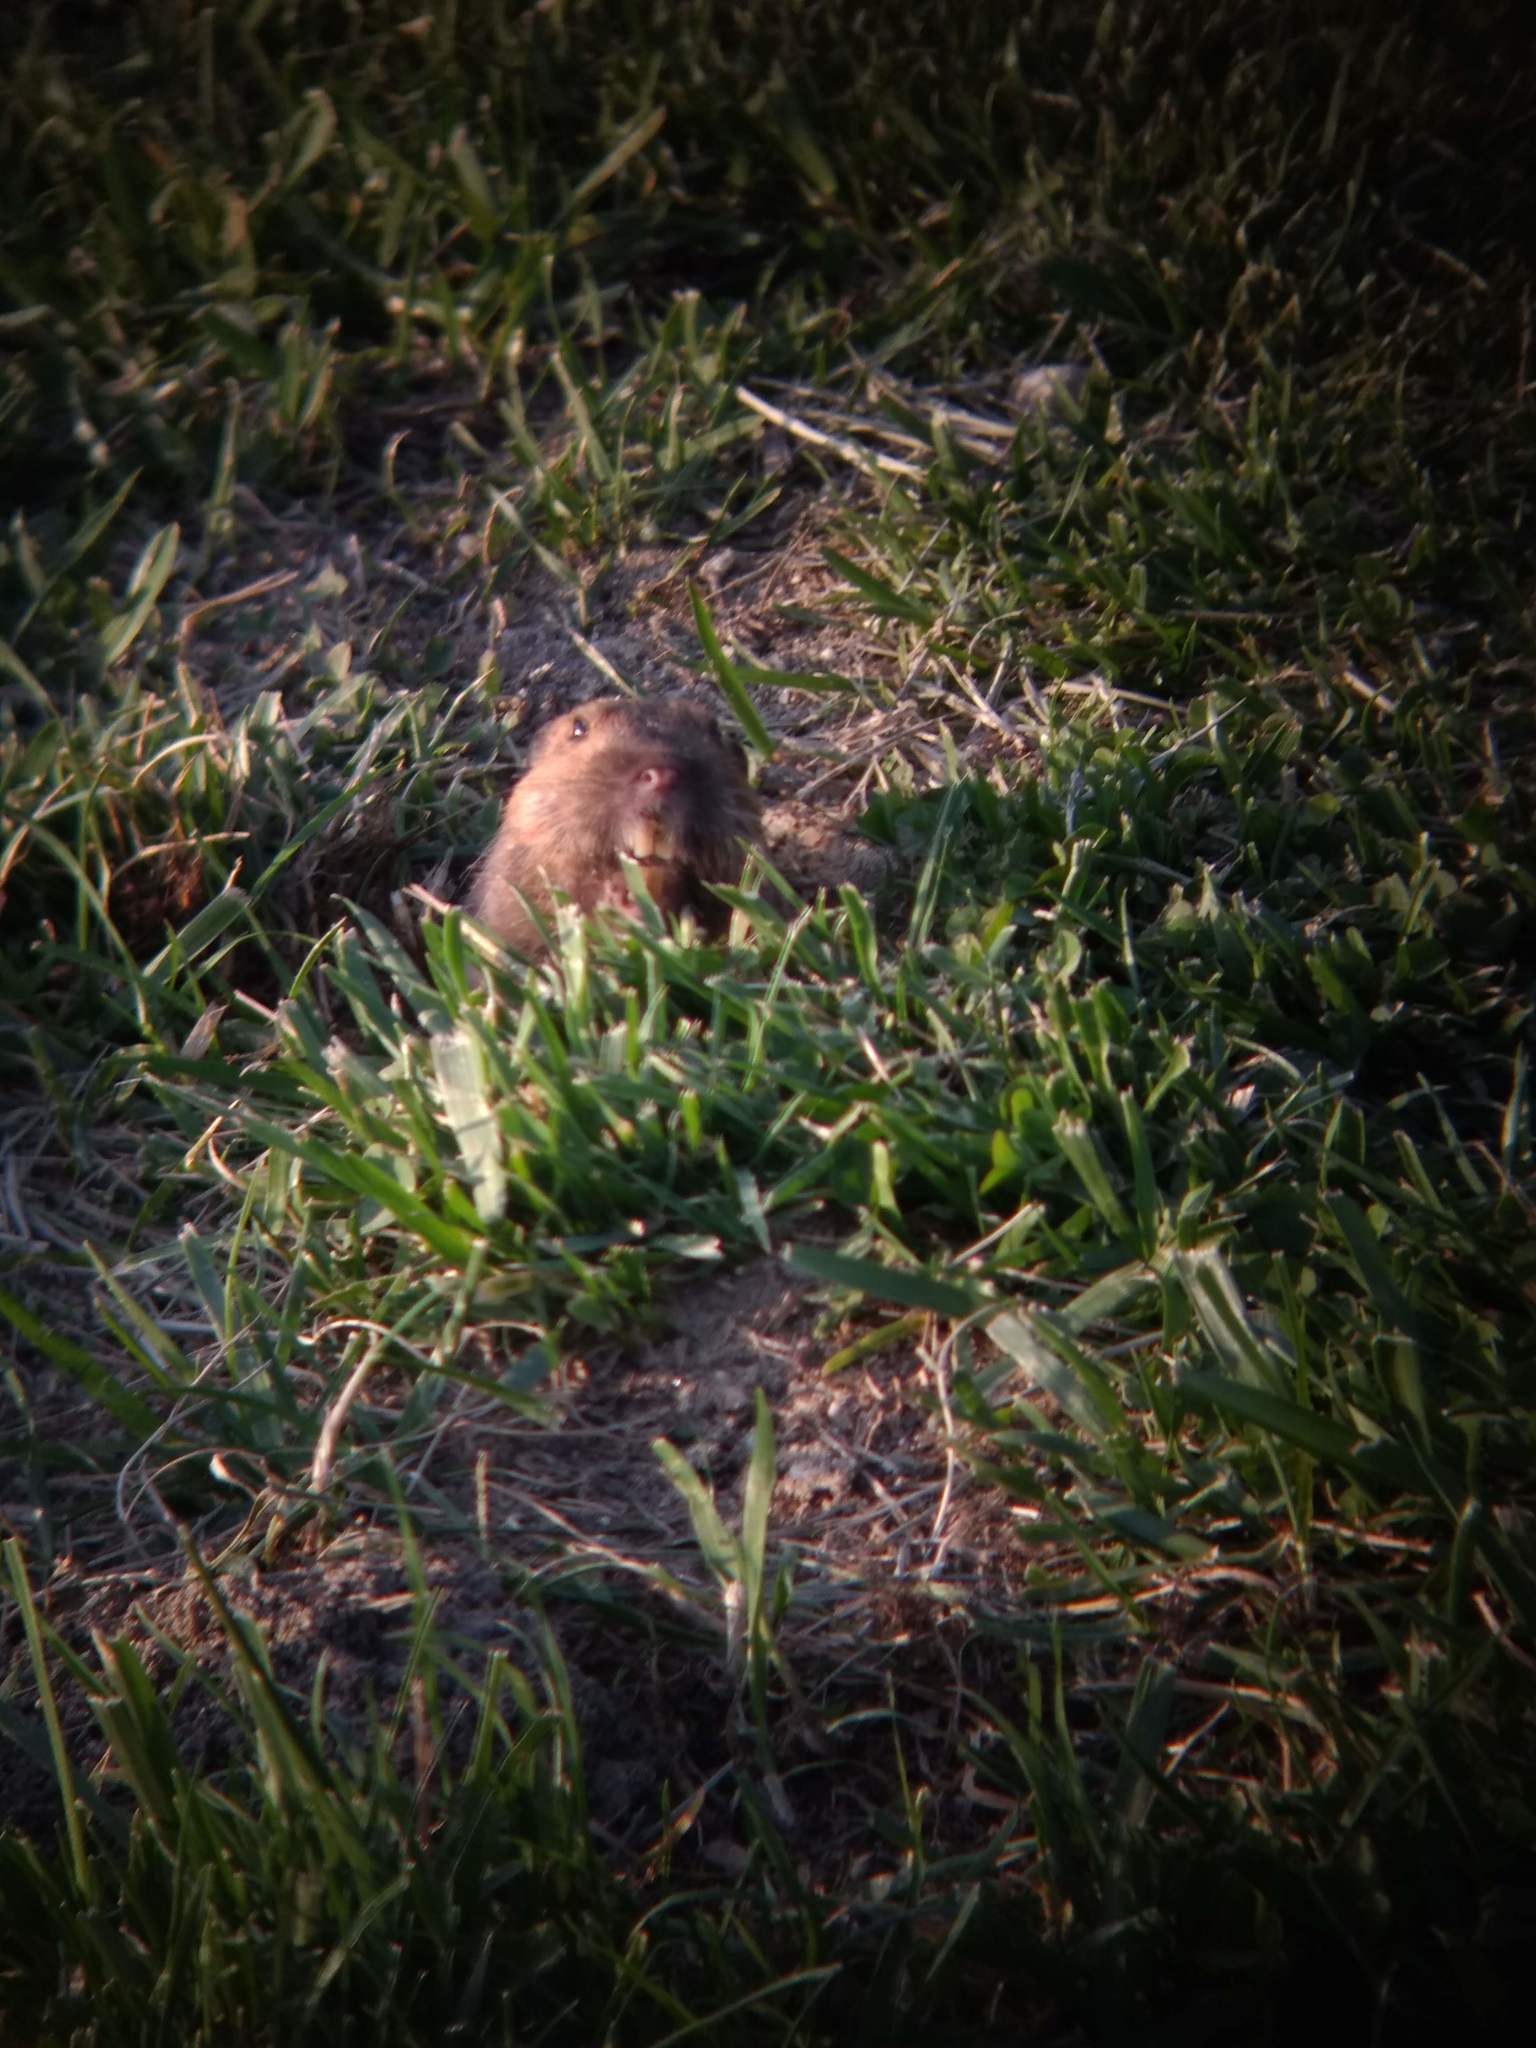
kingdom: Animalia
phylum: Chordata
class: Mammalia
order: Rodentia
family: Geomyidae
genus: Thomomys
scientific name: Thomomys bottae
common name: Botta's pocket gopher
